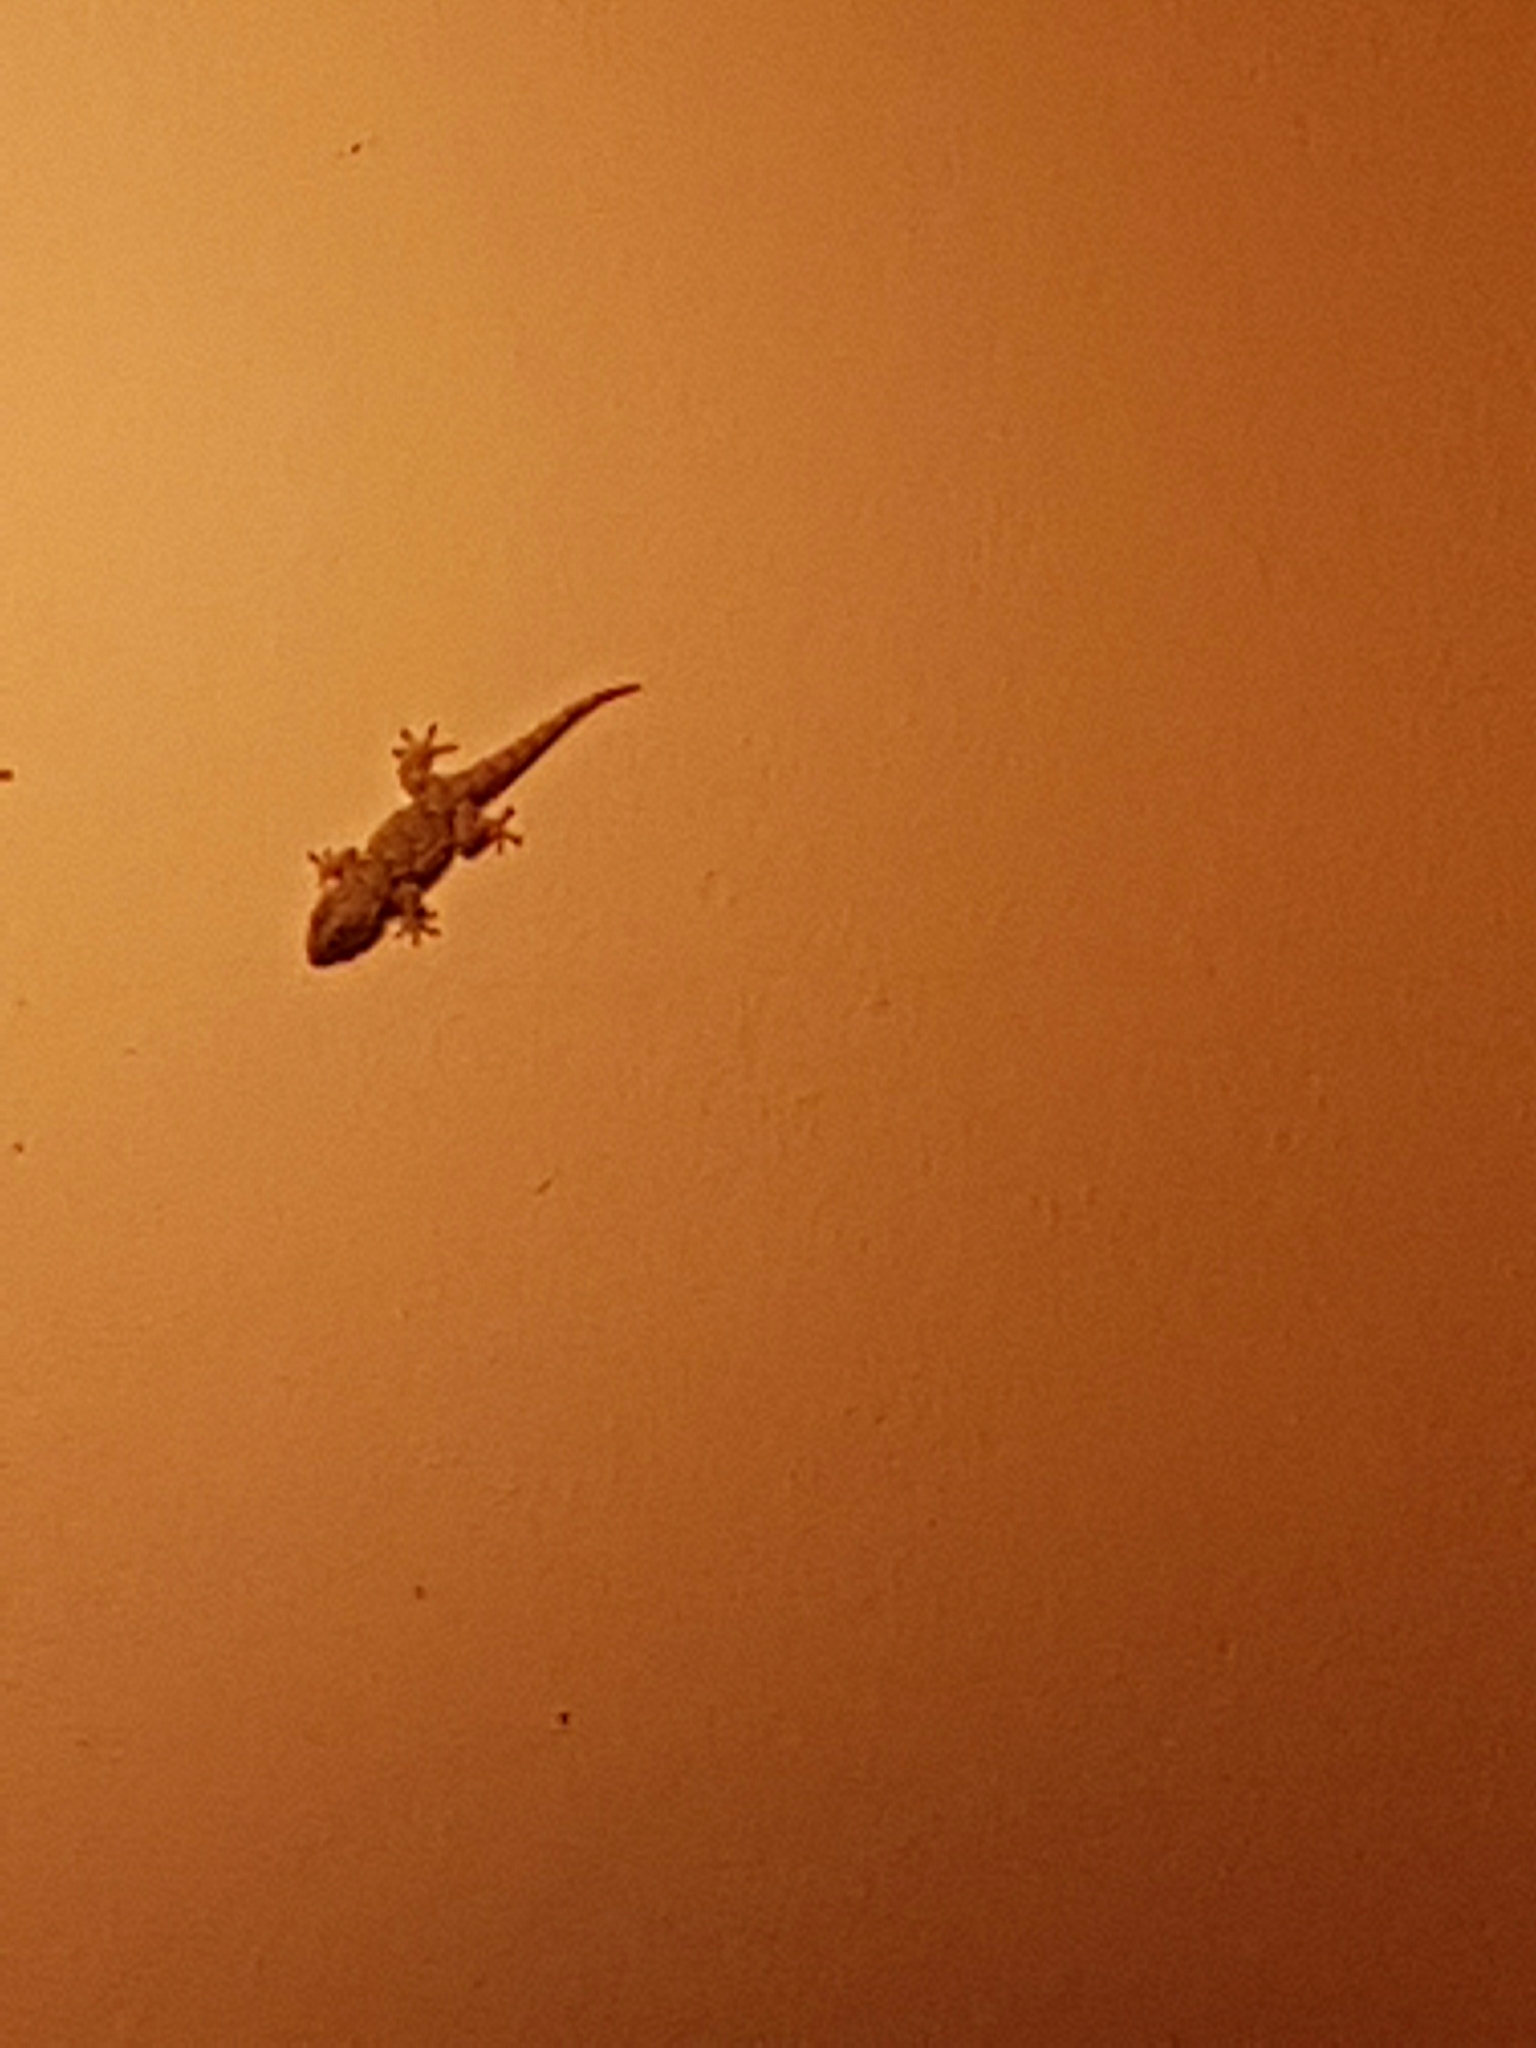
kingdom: Animalia
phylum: Chordata
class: Squamata
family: Phyllodactylidae
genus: Tarentola
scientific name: Tarentola mauritanica
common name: Moorish gecko
